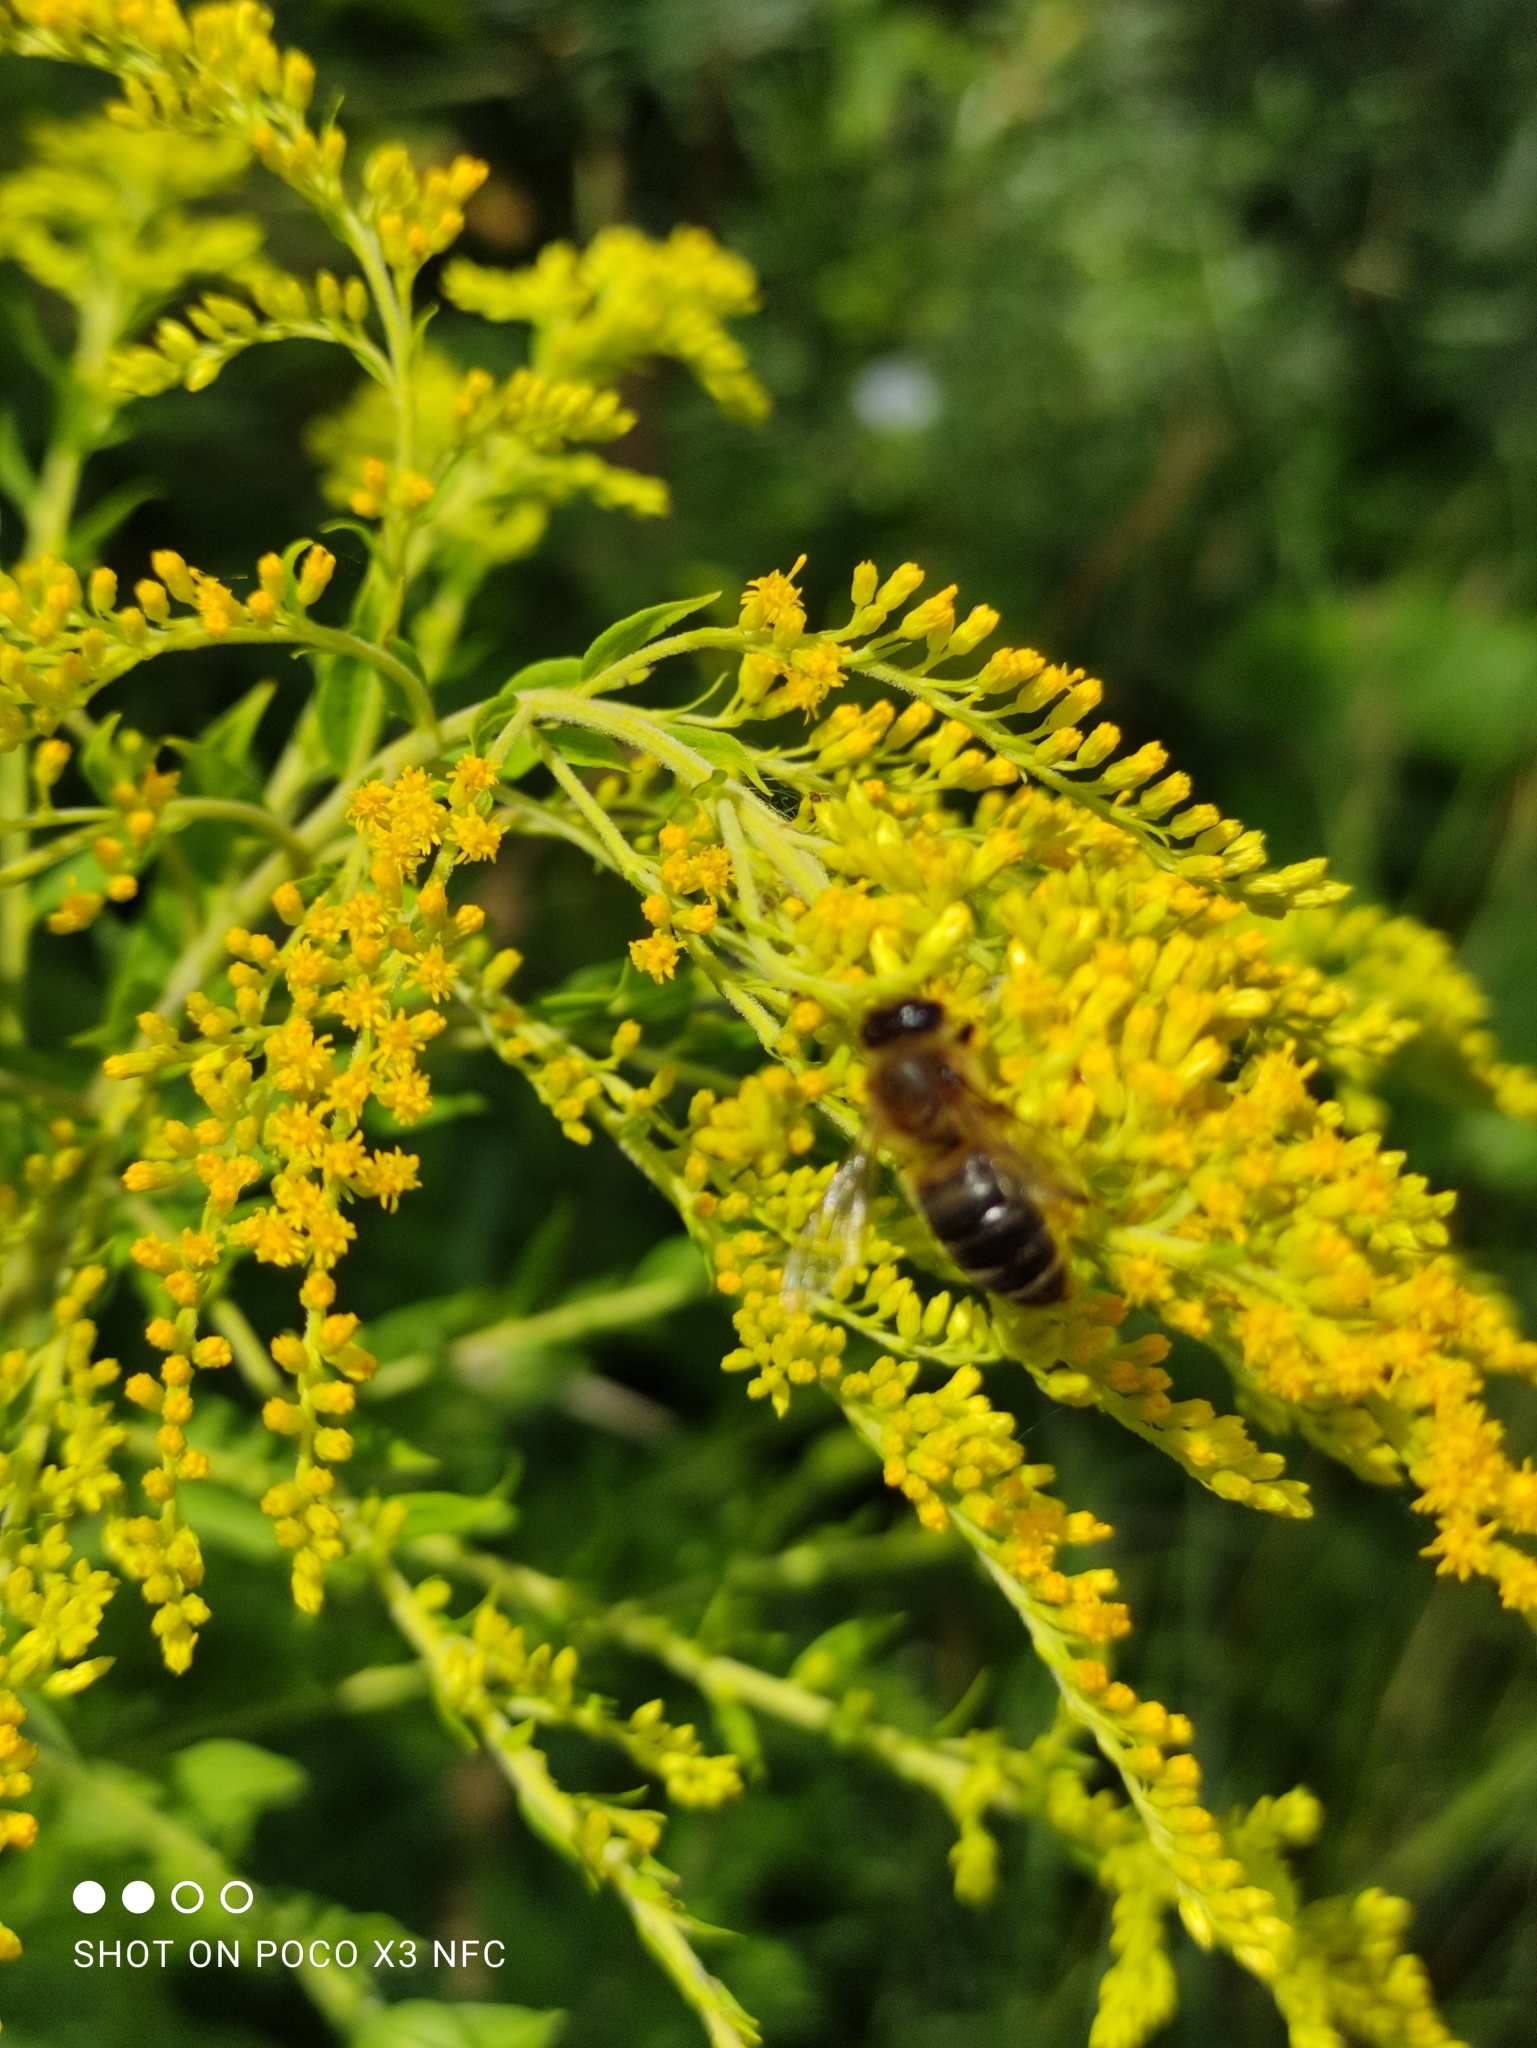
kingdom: Animalia
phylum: Arthropoda
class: Insecta
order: Hymenoptera
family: Apidae
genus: Apis
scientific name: Apis mellifera
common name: Honey bee
